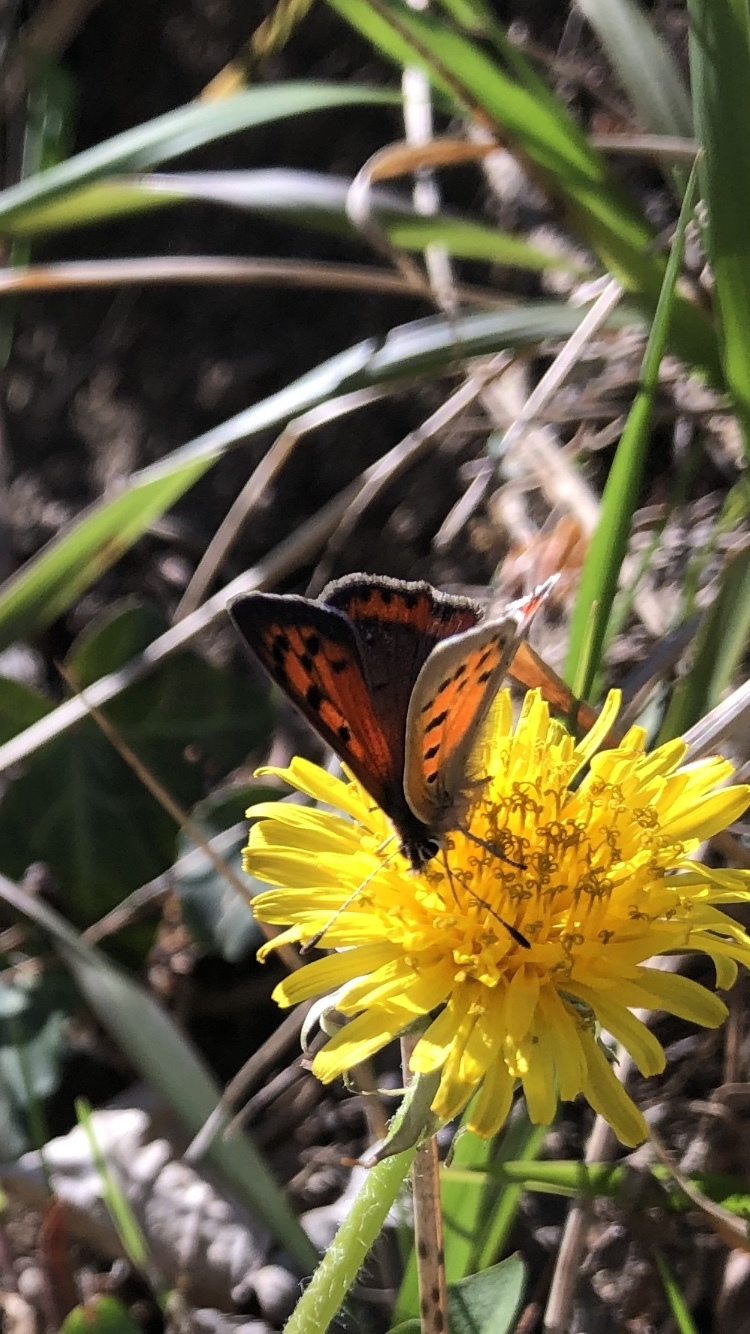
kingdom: Animalia
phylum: Arthropoda
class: Insecta
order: Lepidoptera
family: Lycaenidae
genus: Lycaena
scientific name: Lycaena phlaeas
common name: Small copper
